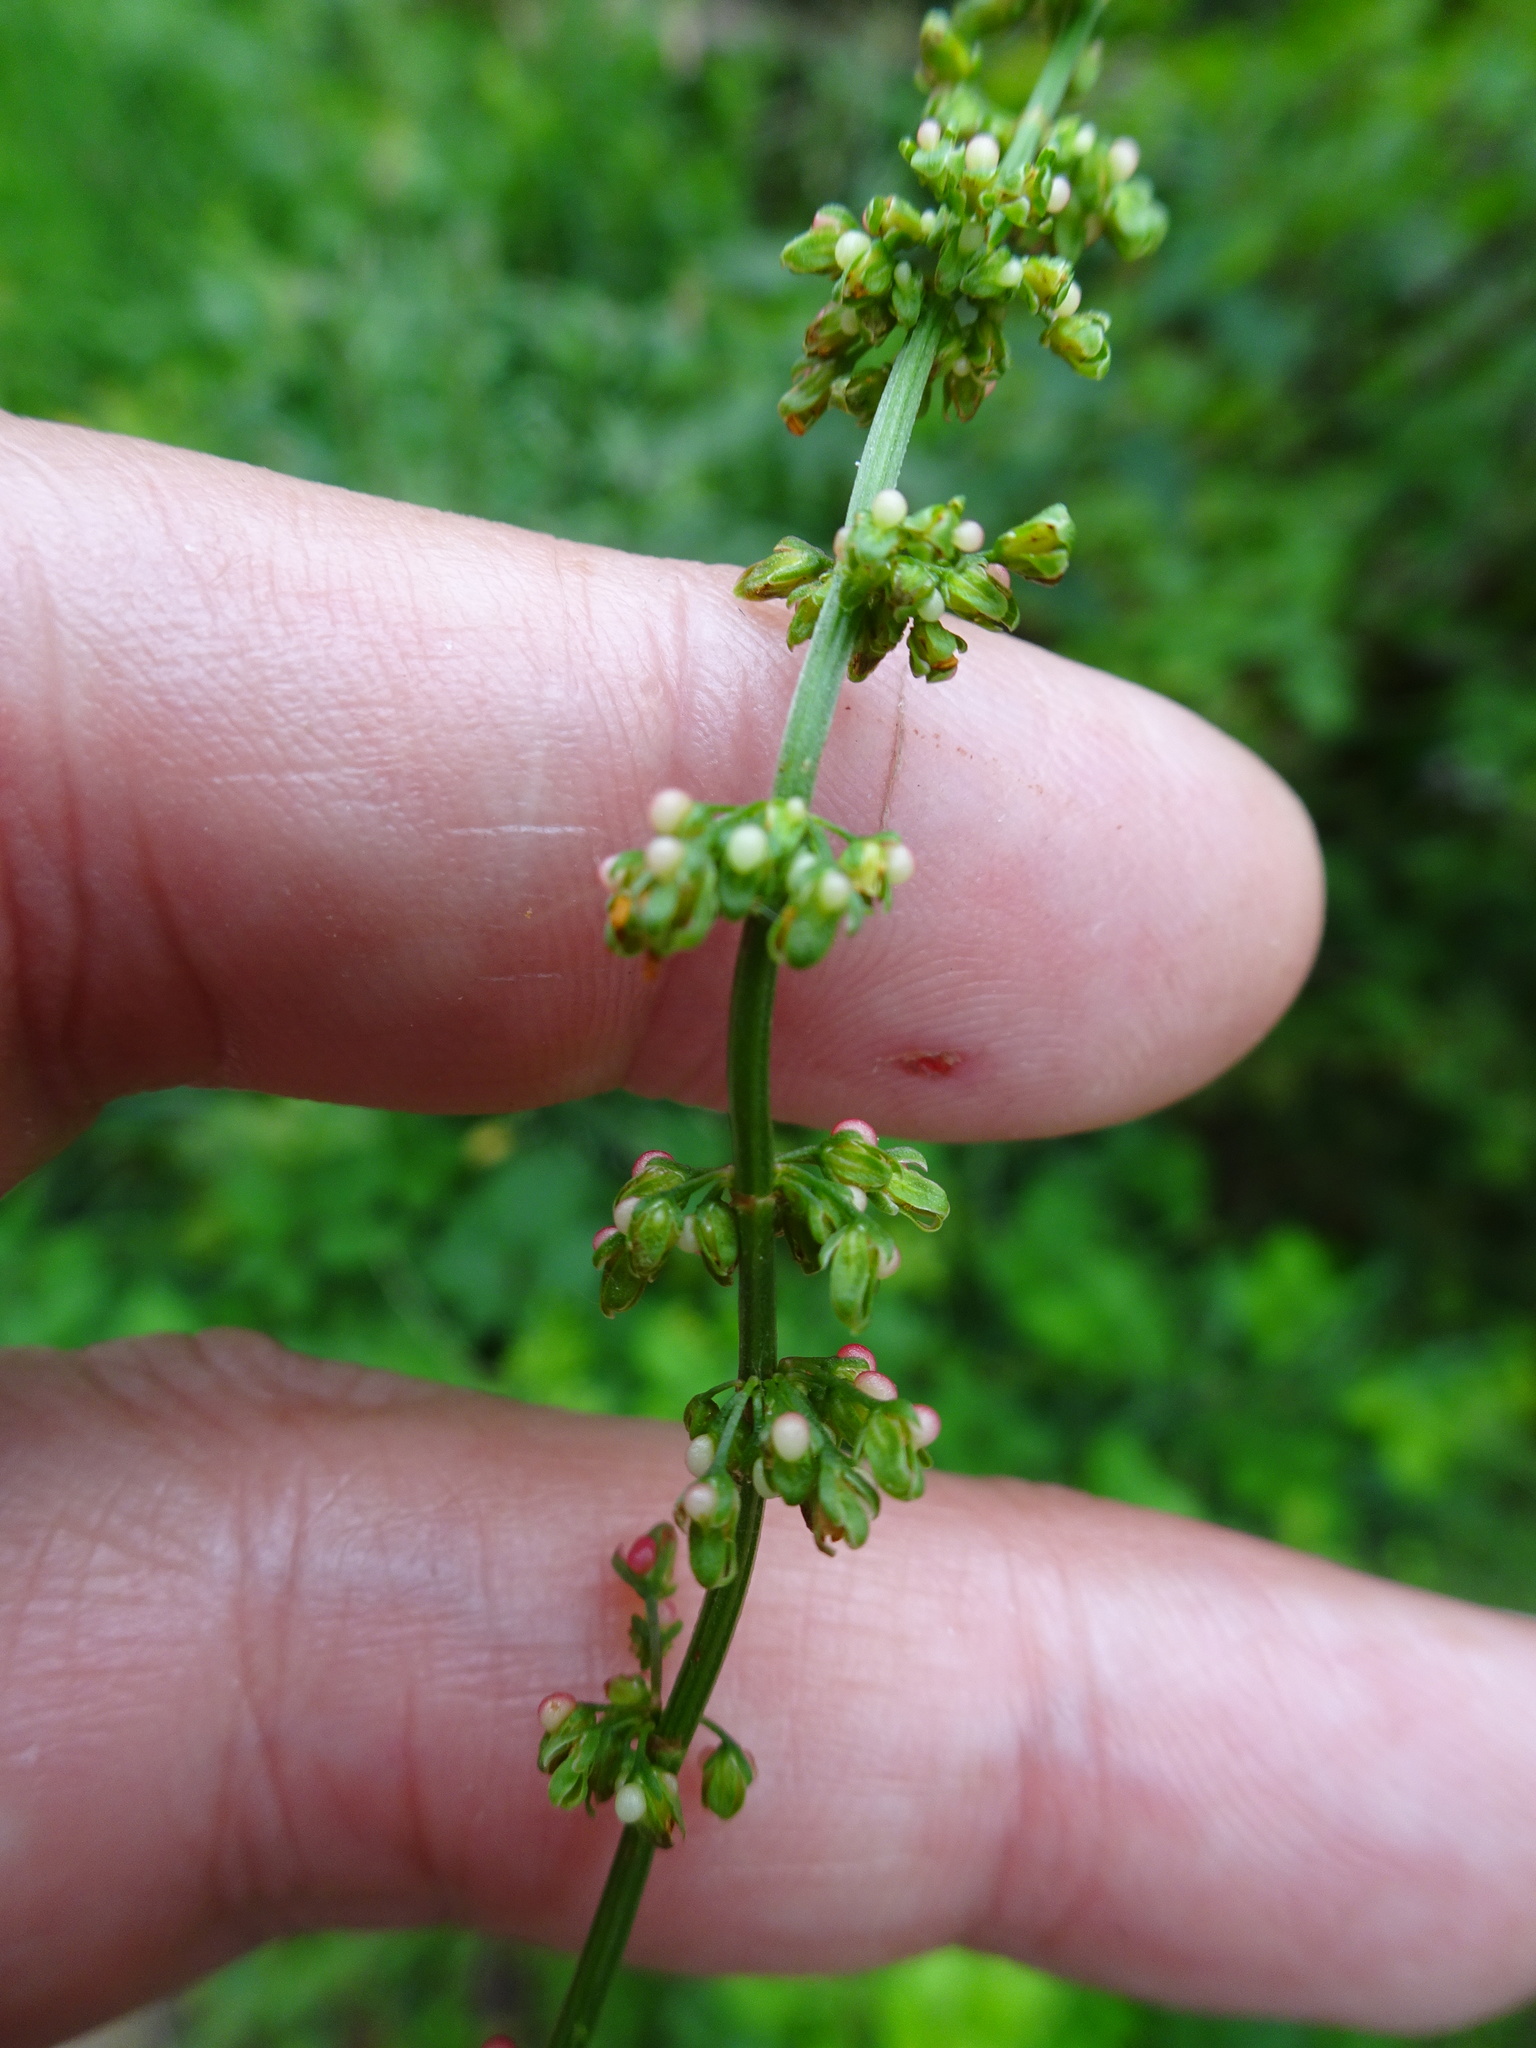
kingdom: Plantae
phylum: Tracheophyta
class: Magnoliopsida
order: Caryophyllales
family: Polygonaceae
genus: Rumex
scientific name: Rumex sanguineus
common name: Wood dock
